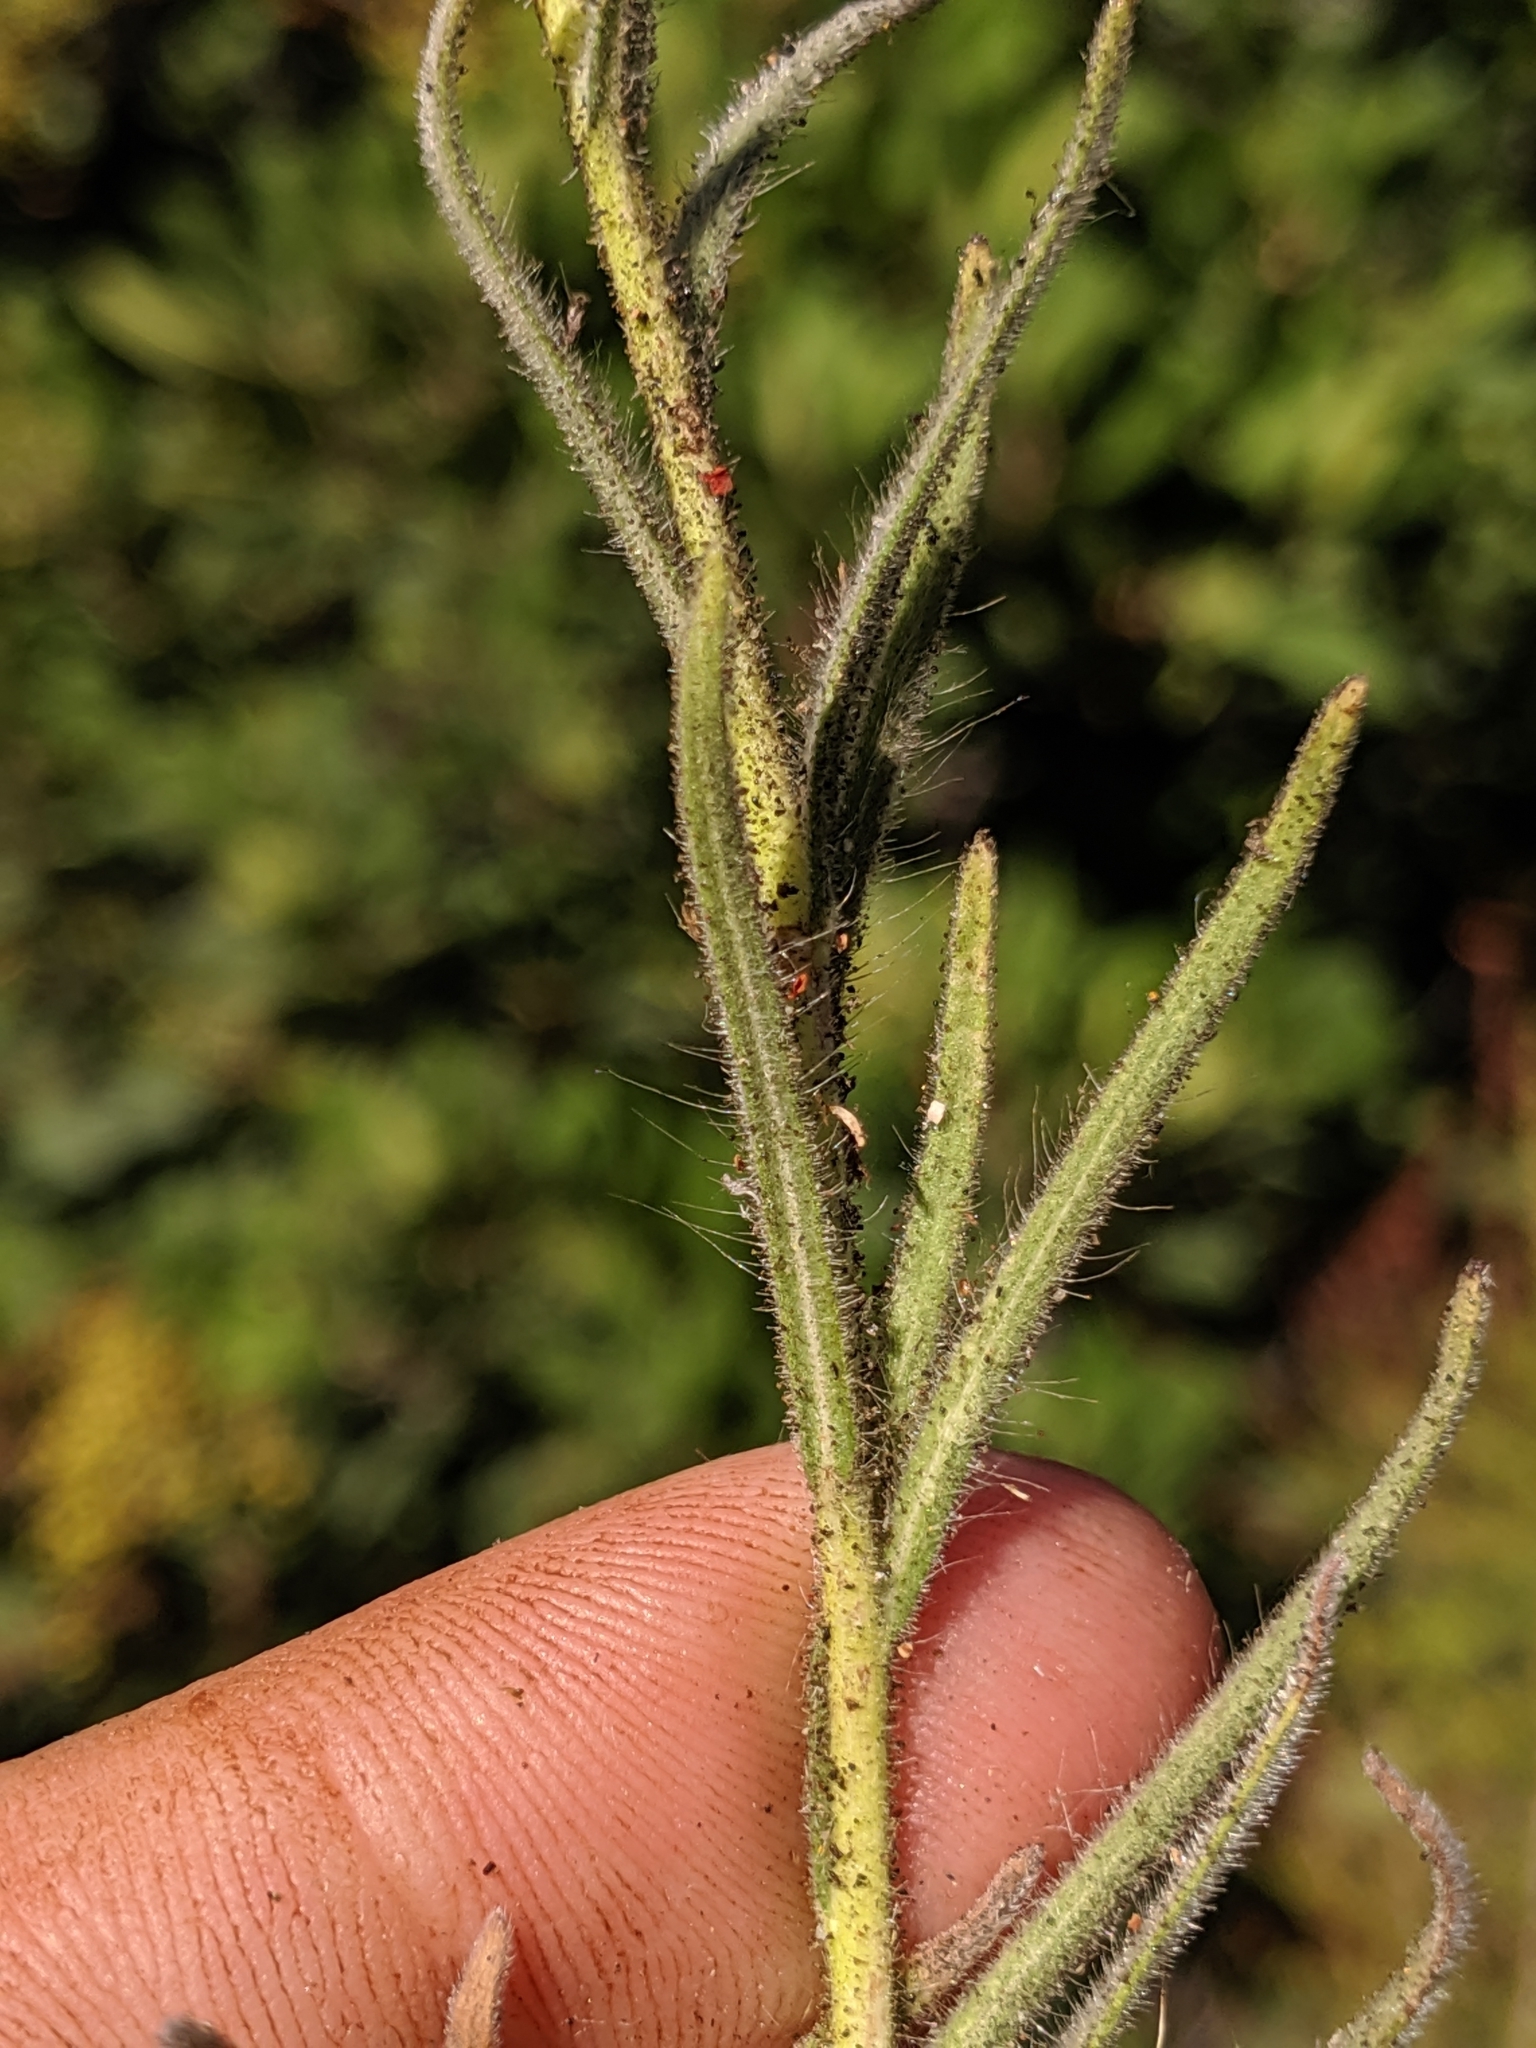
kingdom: Plantae
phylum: Tracheophyta
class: Magnoliopsida
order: Asterales
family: Asteraceae
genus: Madia
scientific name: Madia elegans
